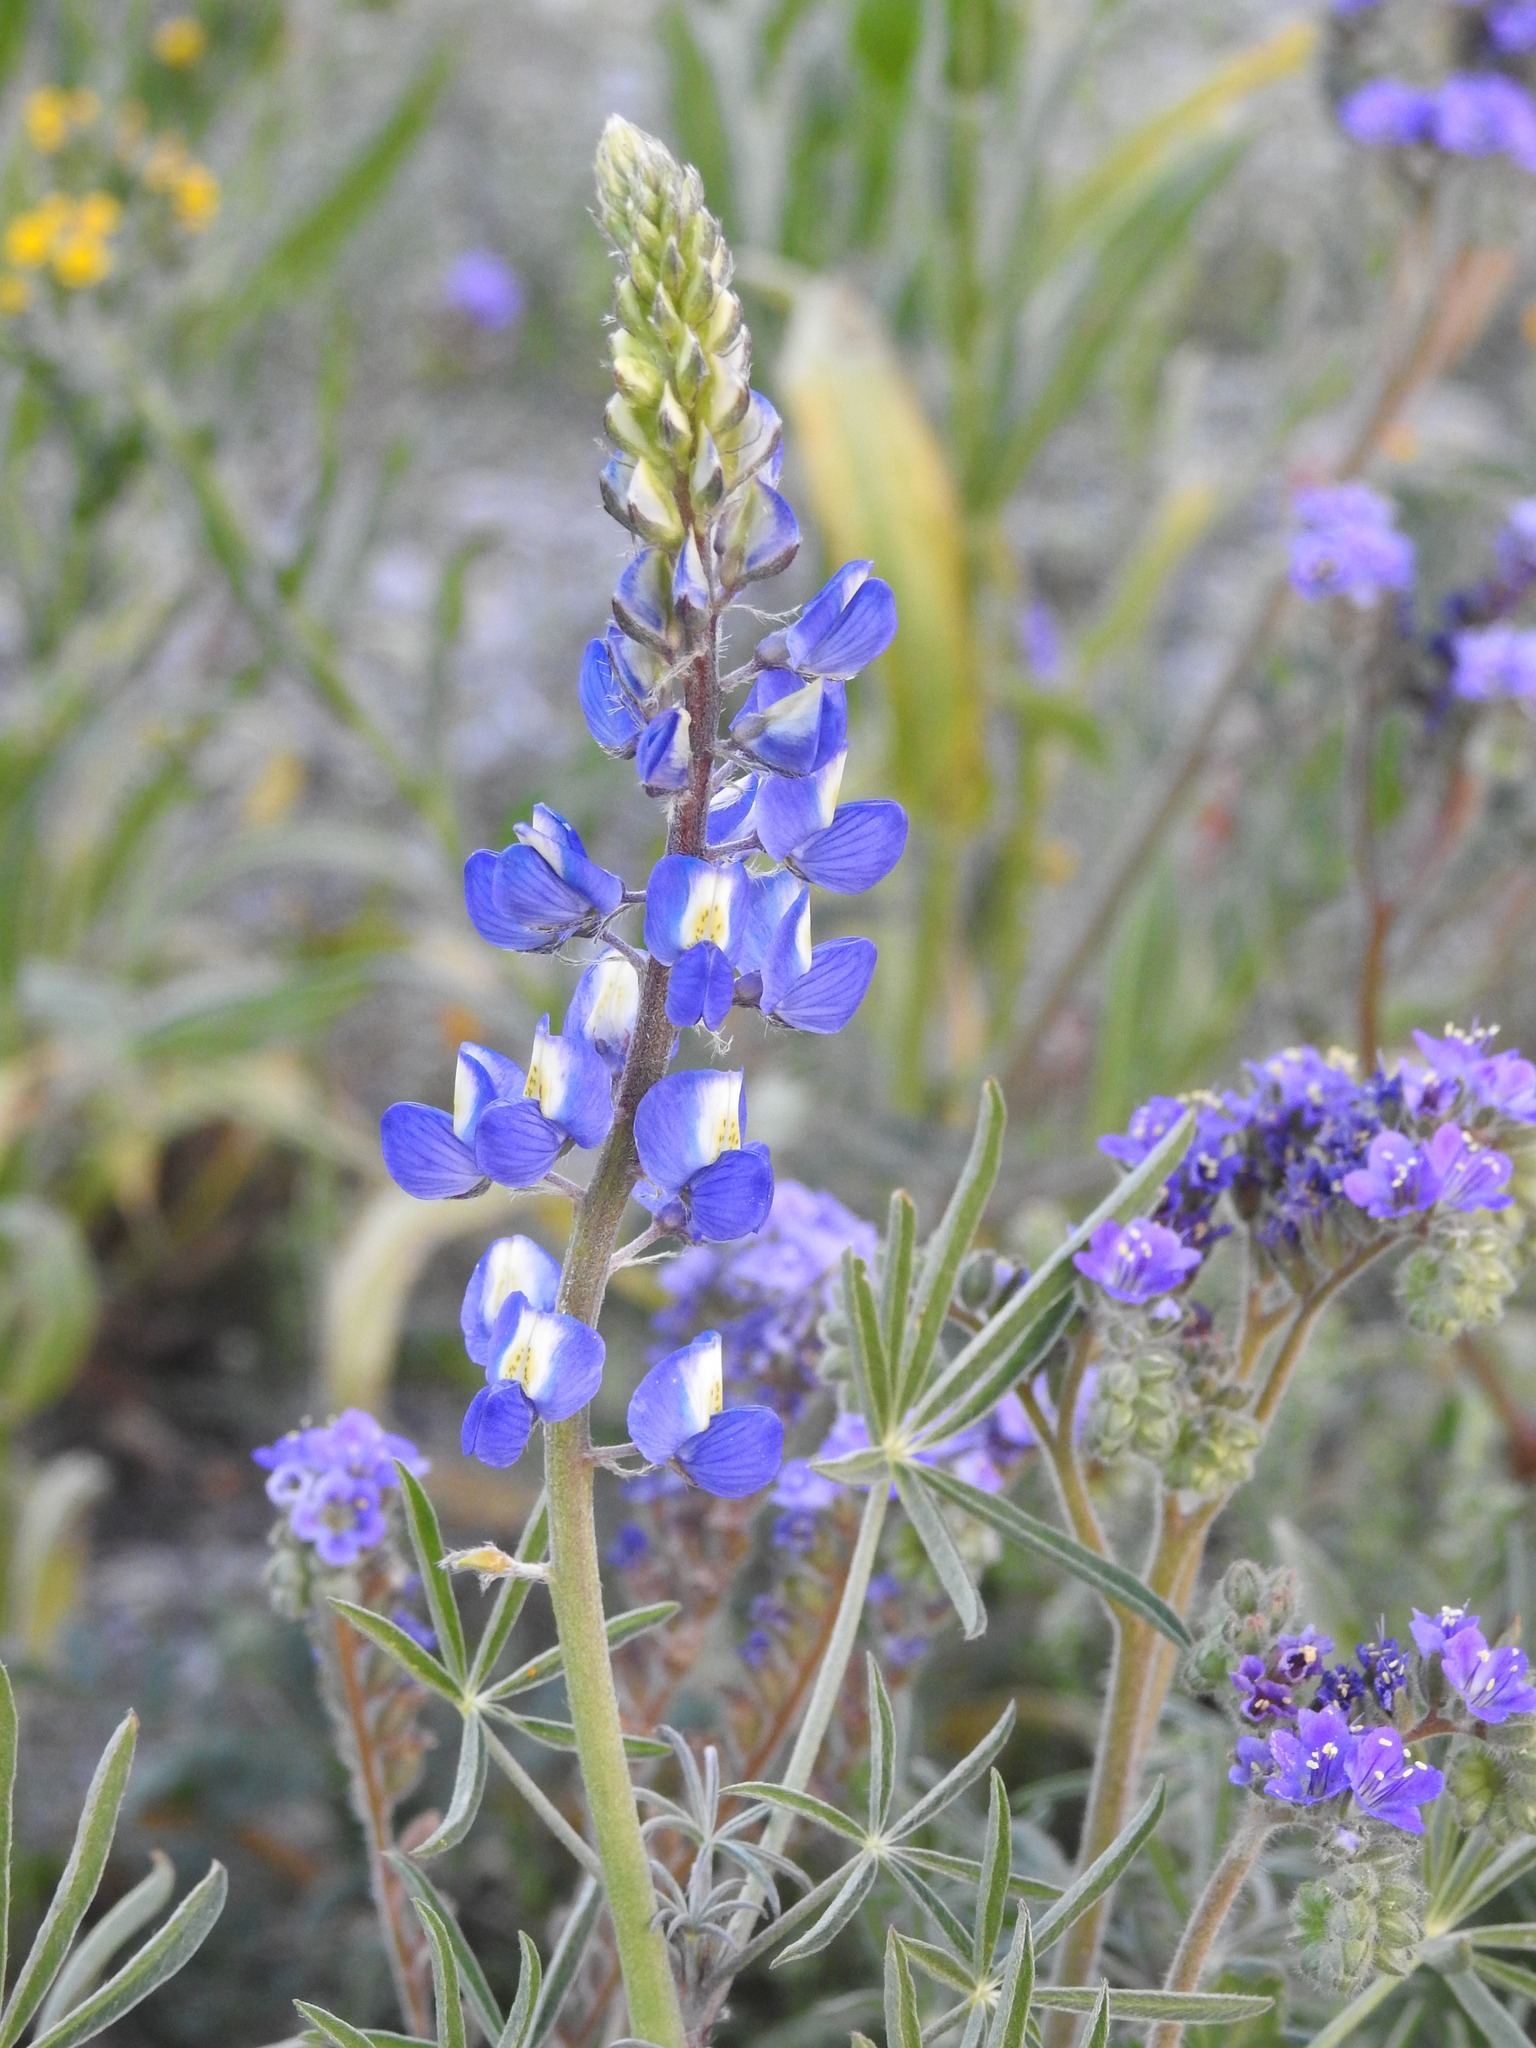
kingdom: Plantae
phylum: Tracheophyta
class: Magnoliopsida
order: Fabales
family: Fabaceae
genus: Lupinus
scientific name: Lupinus sparsiflorus
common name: Coulter's lupine
